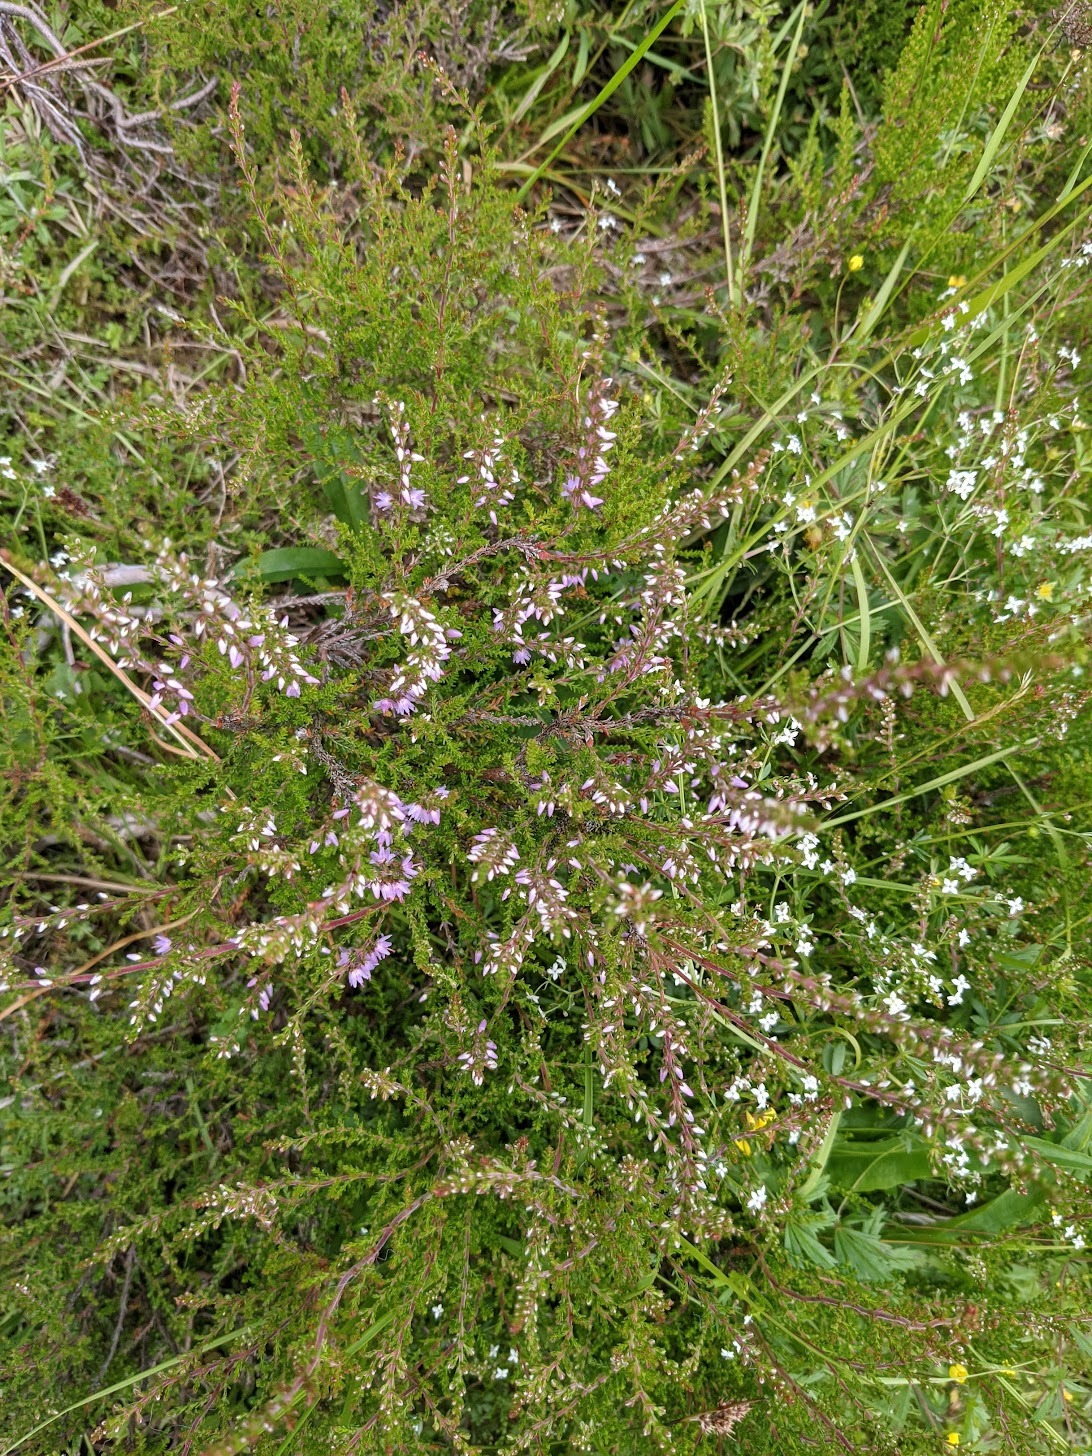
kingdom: Plantae
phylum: Tracheophyta
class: Magnoliopsida
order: Ericales
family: Ericaceae
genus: Calluna
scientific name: Calluna vulgaris
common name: Heather
